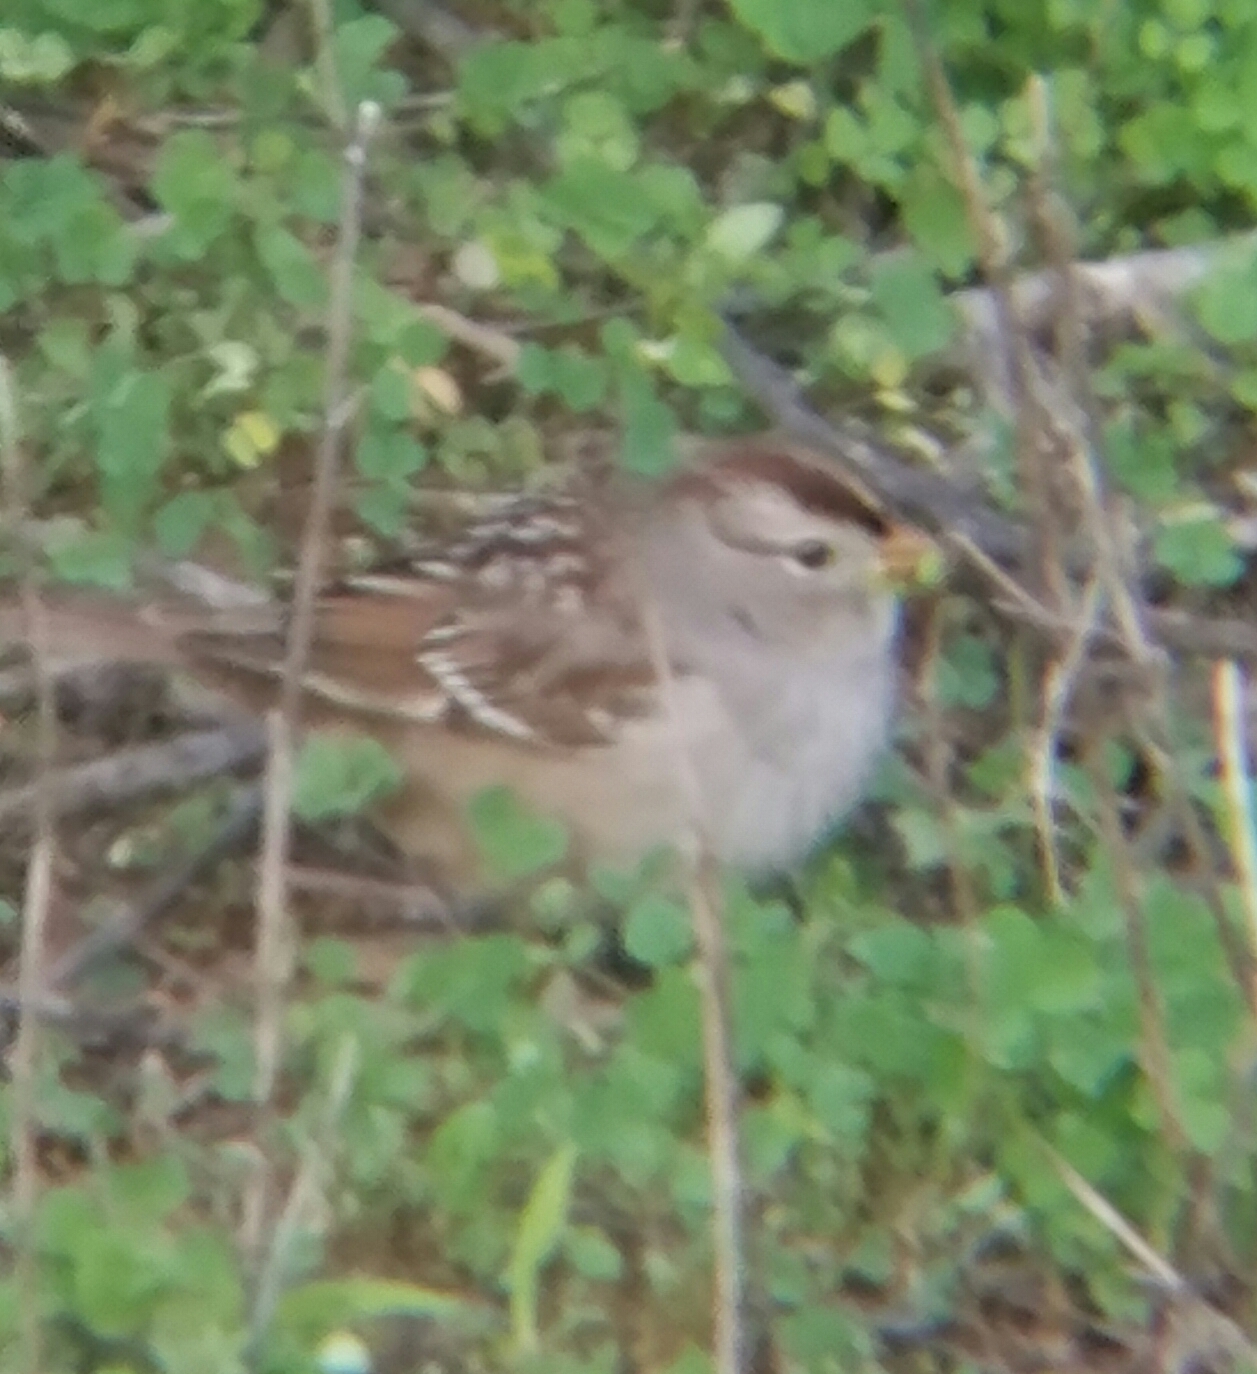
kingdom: Animalia
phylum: Chordata
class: Aves
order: Passeriformes
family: Passerellidae
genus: Zonotrichia
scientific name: Zonotrichia leucophrys
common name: White-crowned sparrow
